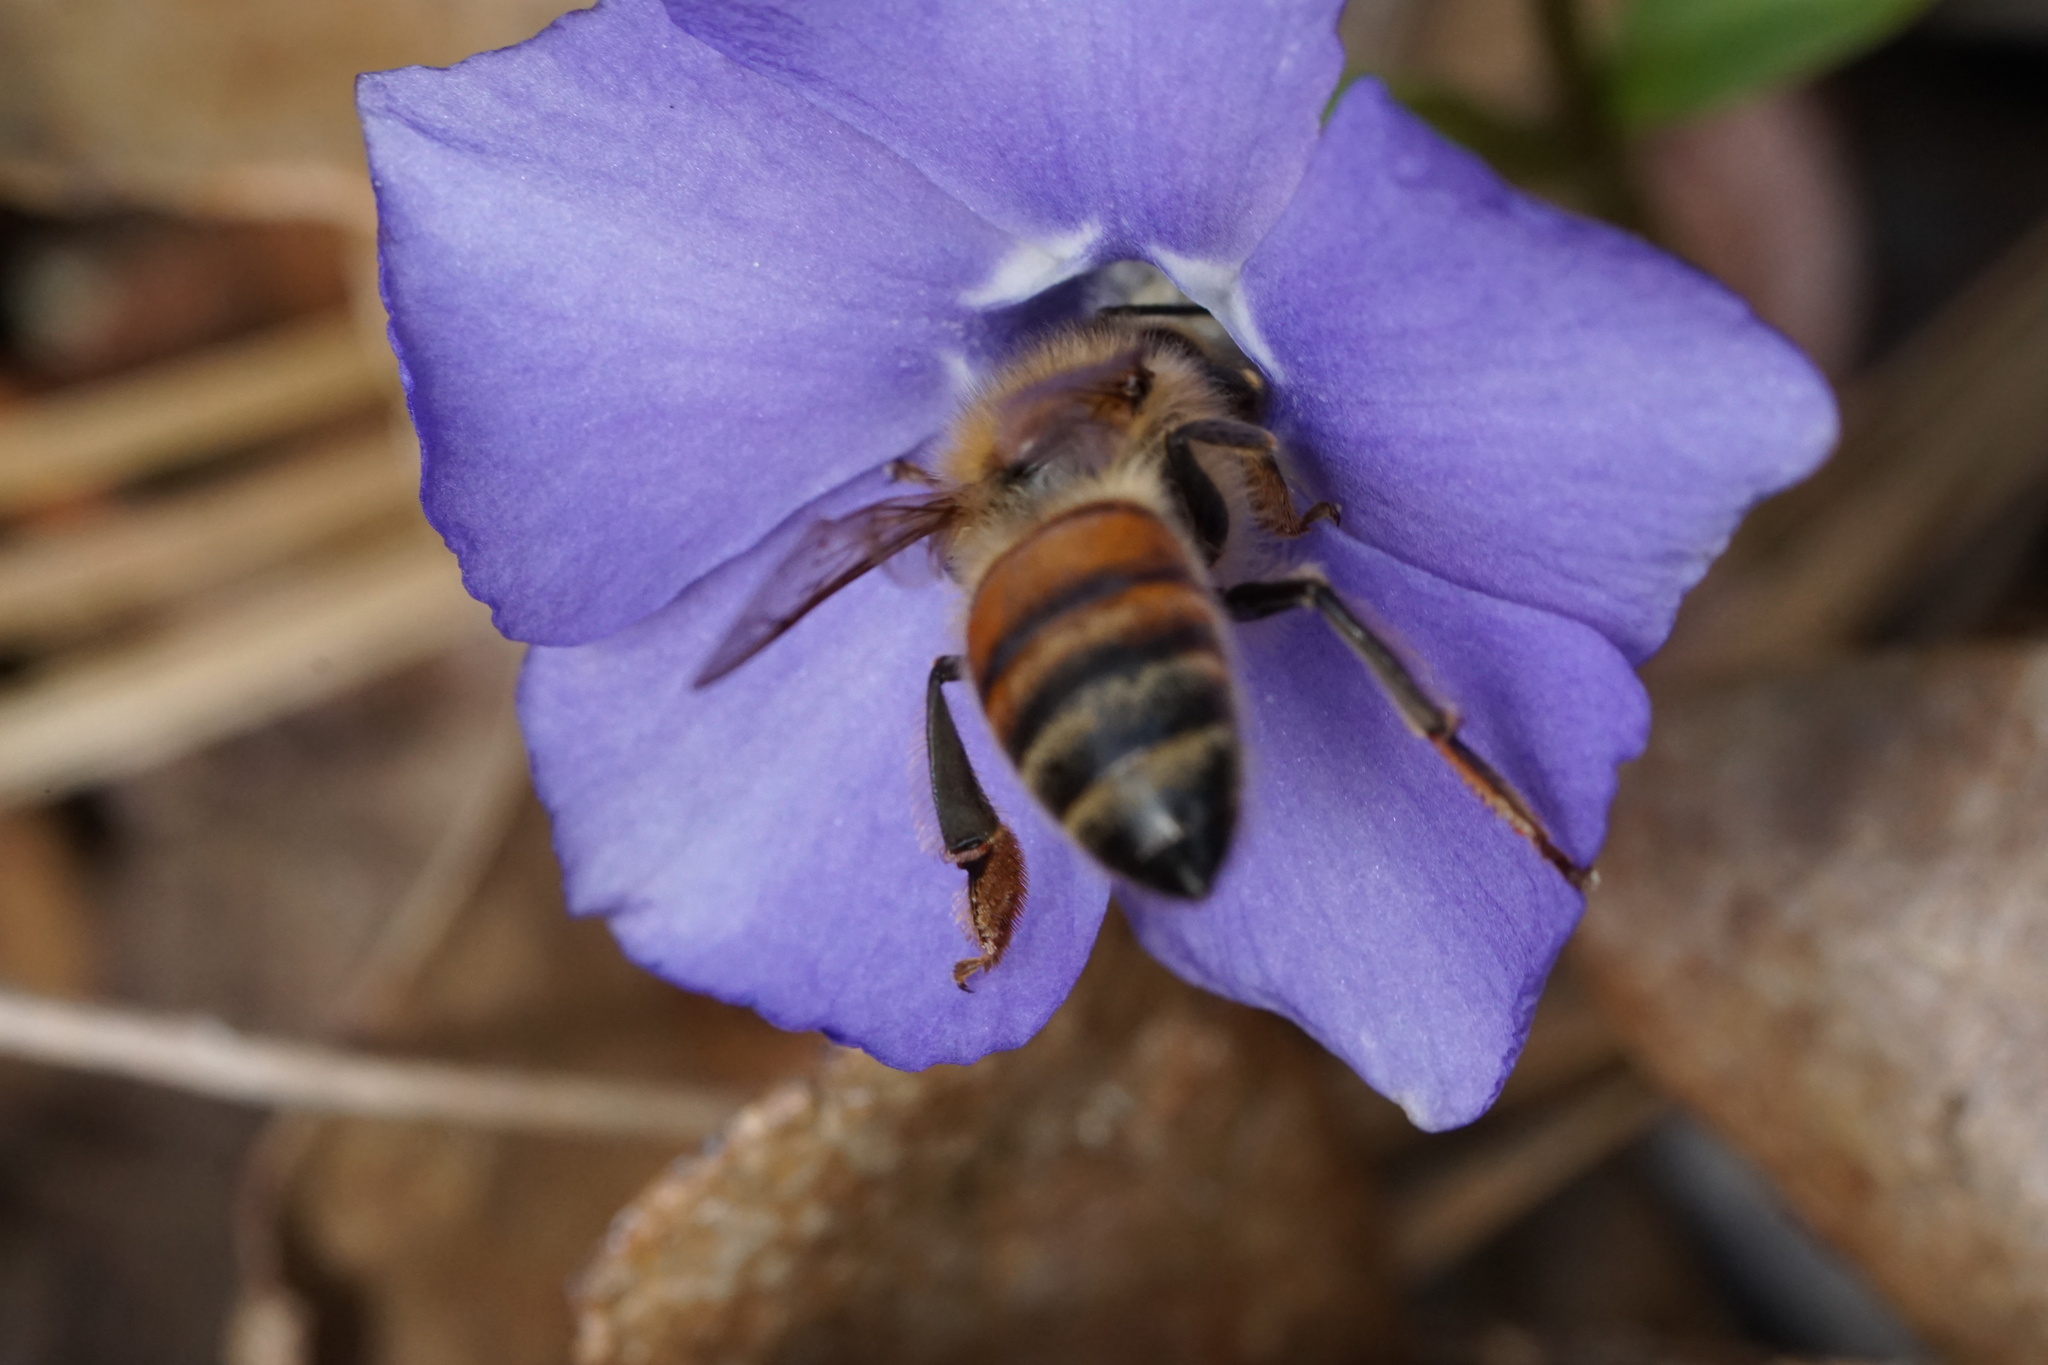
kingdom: Animalia
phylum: Arthropoda
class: Insecta
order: Hymenoptera
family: Apidae
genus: Apis
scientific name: Apis mellifera
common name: Honey bee
